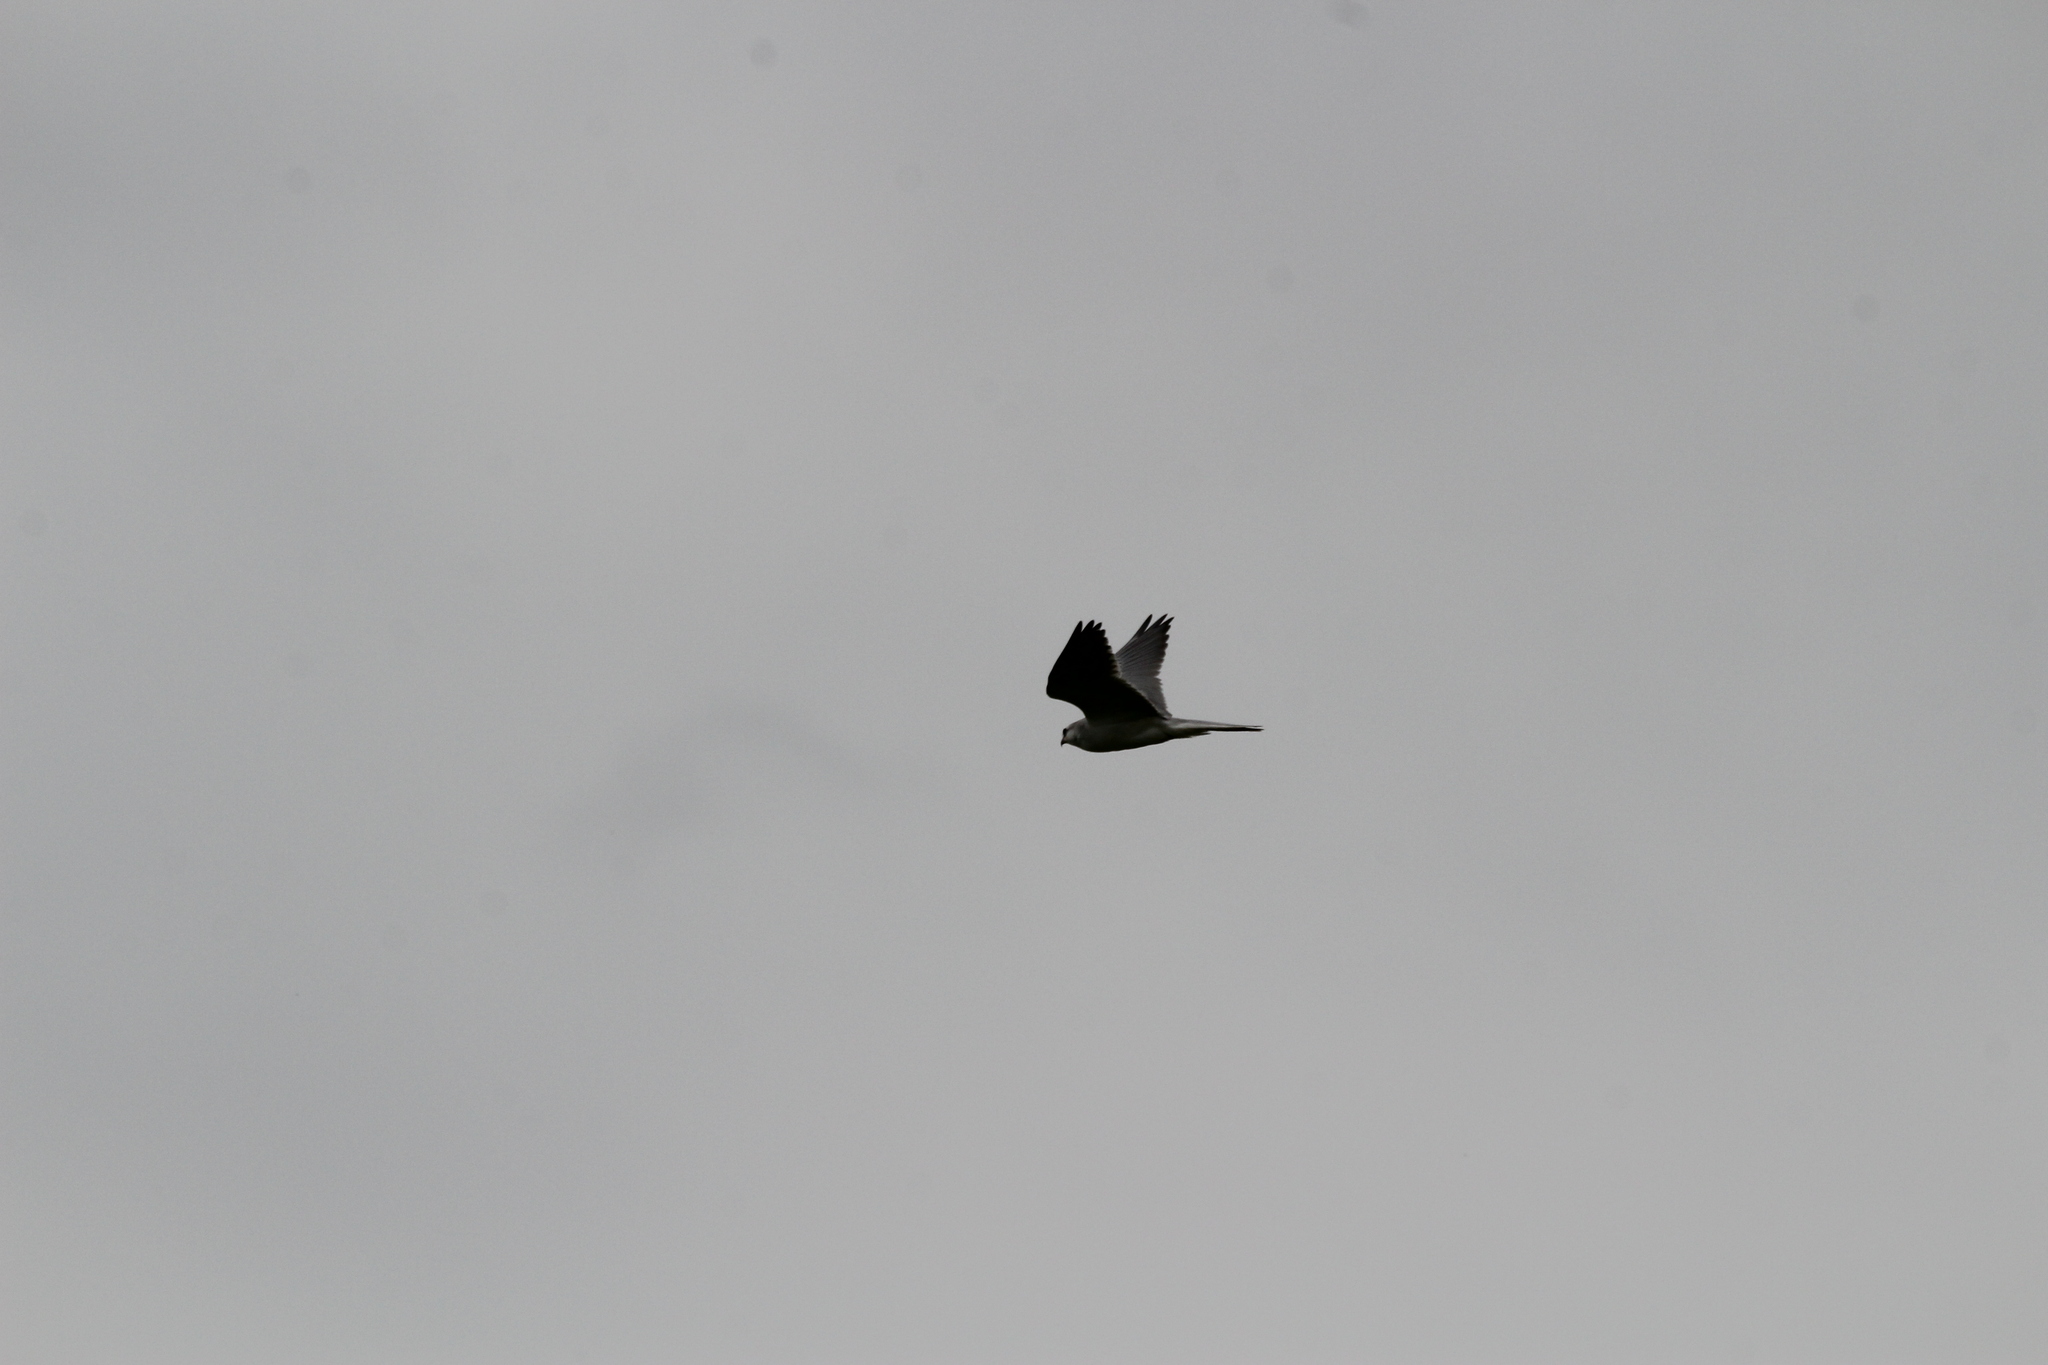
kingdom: Animalia
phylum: Chordata
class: Aves
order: Accipitriformes
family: Accipitridae
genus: Elanus
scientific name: Elanus leucurus
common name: White-tailed kite
